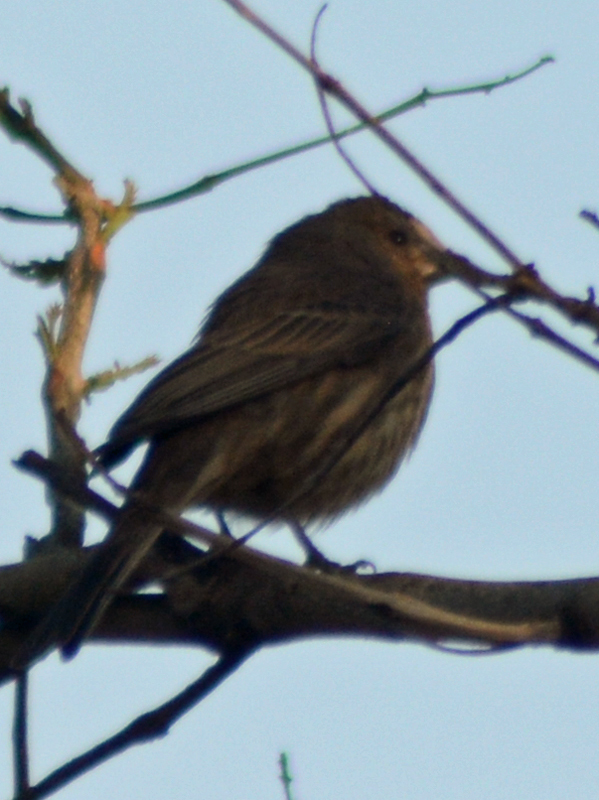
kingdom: Animalia
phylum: Chordata
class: Aves
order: Passeriformes
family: Fringillidae
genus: Haemorhous
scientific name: Haemorhous mexicanus
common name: House finch
